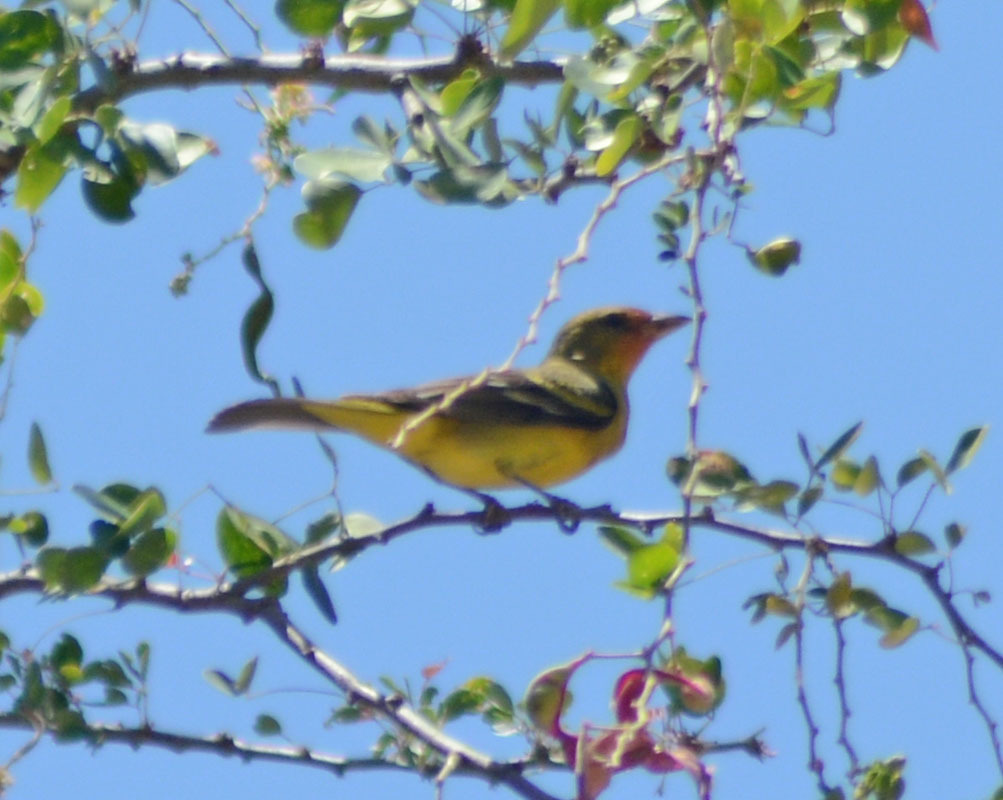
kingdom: Animalia
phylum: Chordata
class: Aves
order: Passeriformes
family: Cardinalidae
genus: Piranga
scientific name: Piranga ludoviciana
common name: Western tanager
